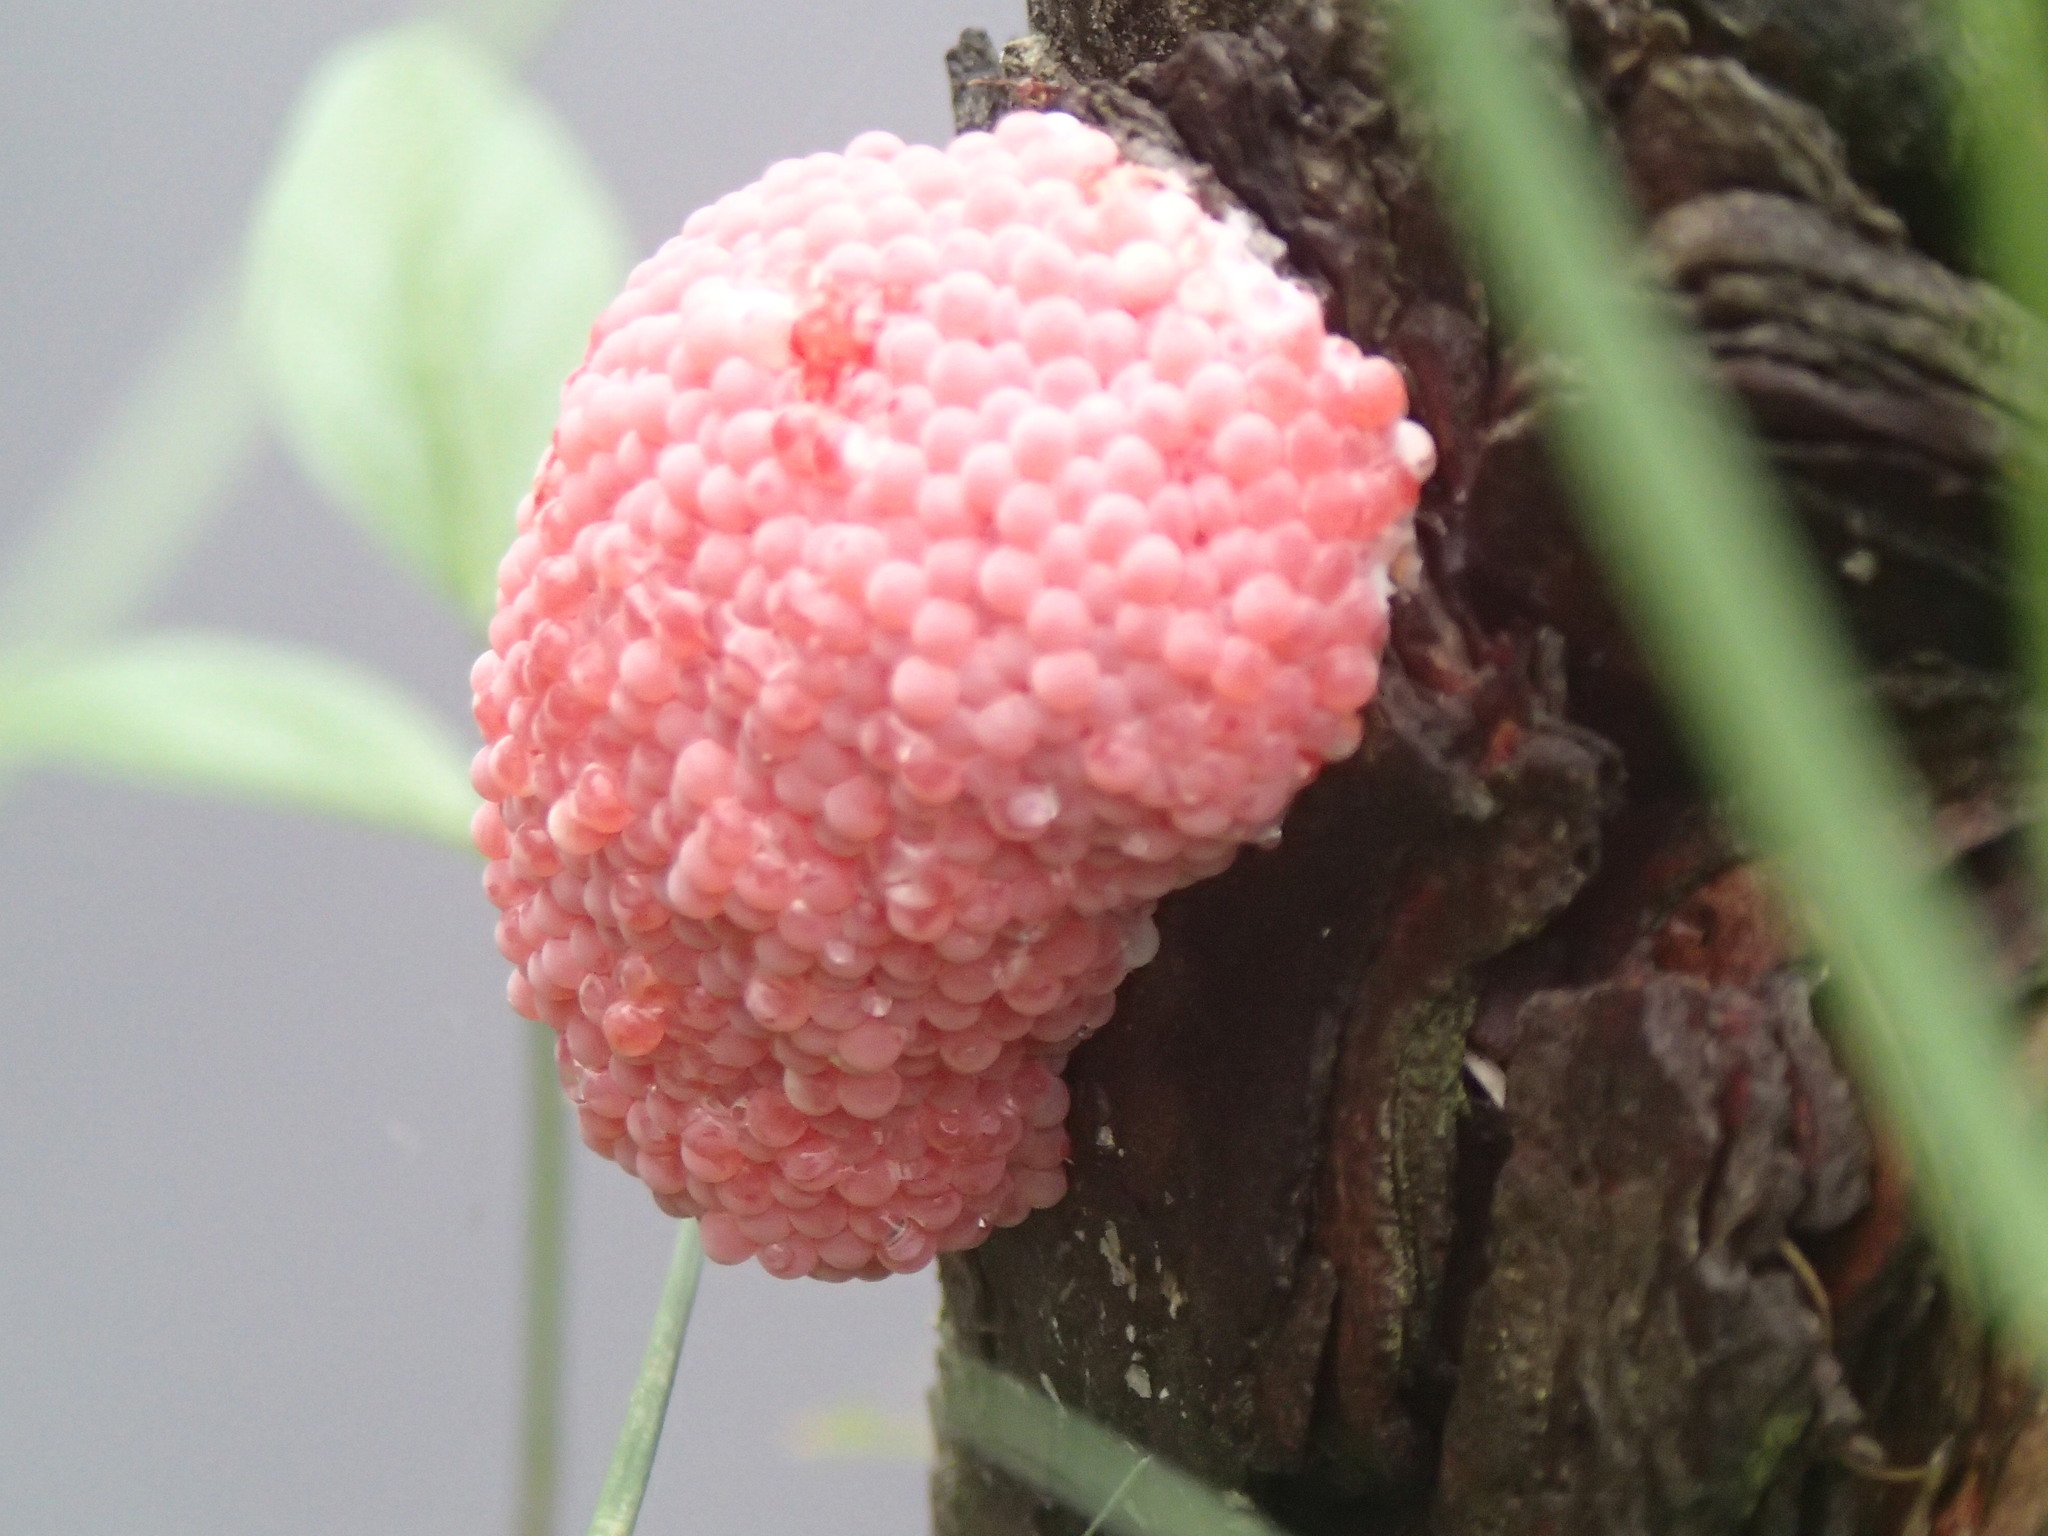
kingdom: Animalia
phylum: Mollusca
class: Gastropoda
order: Architaenioglossa
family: Ampullariidae
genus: Pomacea
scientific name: Pomacea canaliculata
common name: Channeled applesnail
